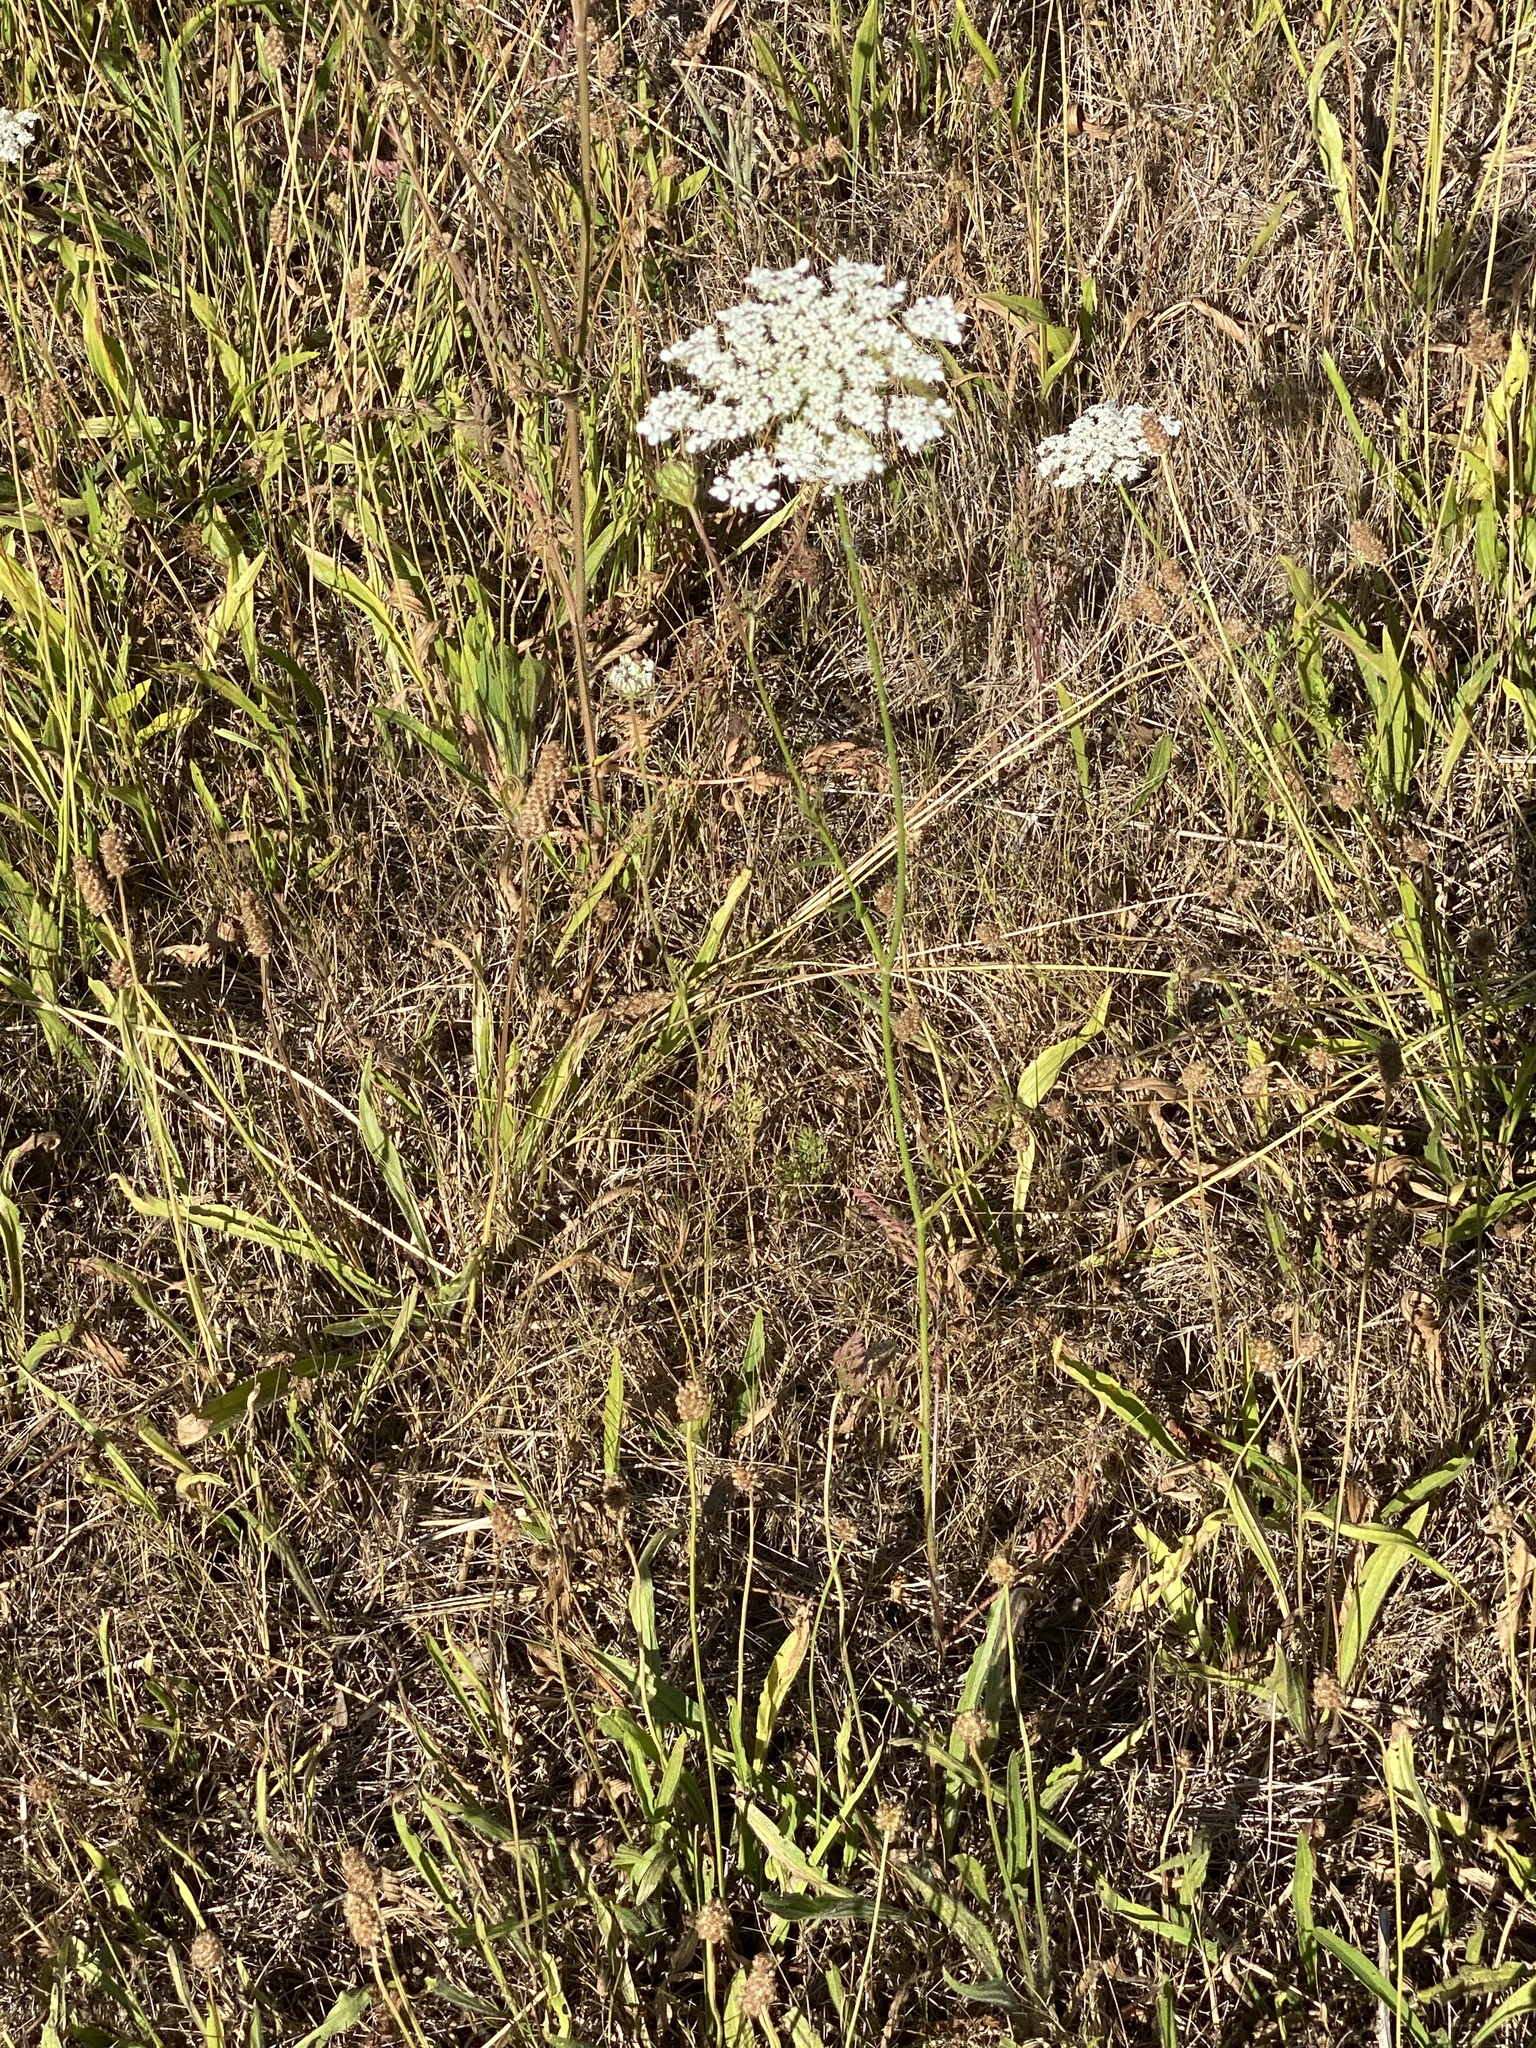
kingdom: Plantae
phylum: Tracheophyta
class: Magnoliopsida
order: Apiales
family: Apiaceae
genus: Daucus
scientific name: Daucus carota
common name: Wild carrot
